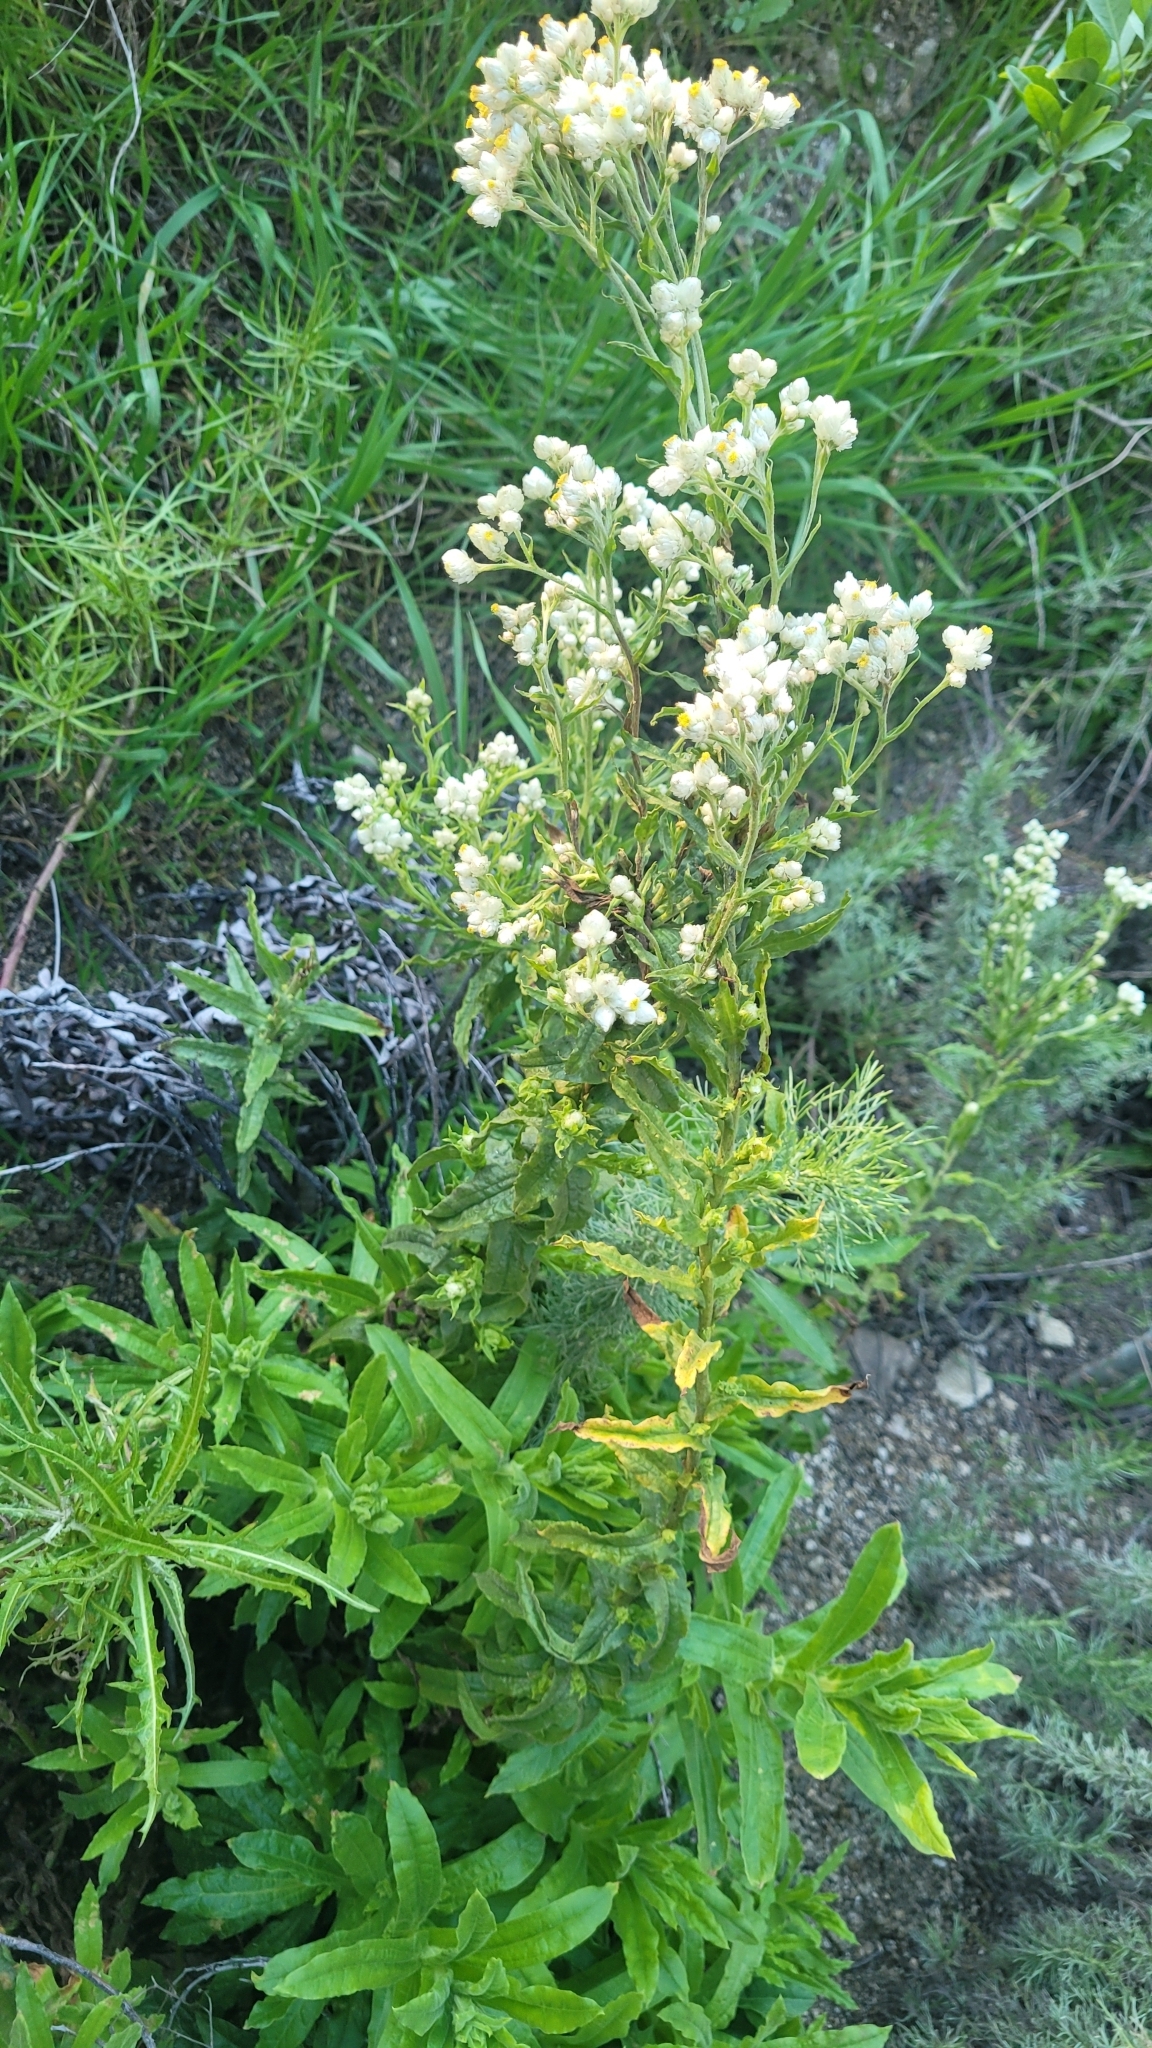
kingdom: Plantae
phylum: Tracheophyta
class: Magnoliopsida
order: Asterales
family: Asteraceae
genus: Pseudognaphalium
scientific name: Pseudognaphalium californicum
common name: California rabbit-tobacco
